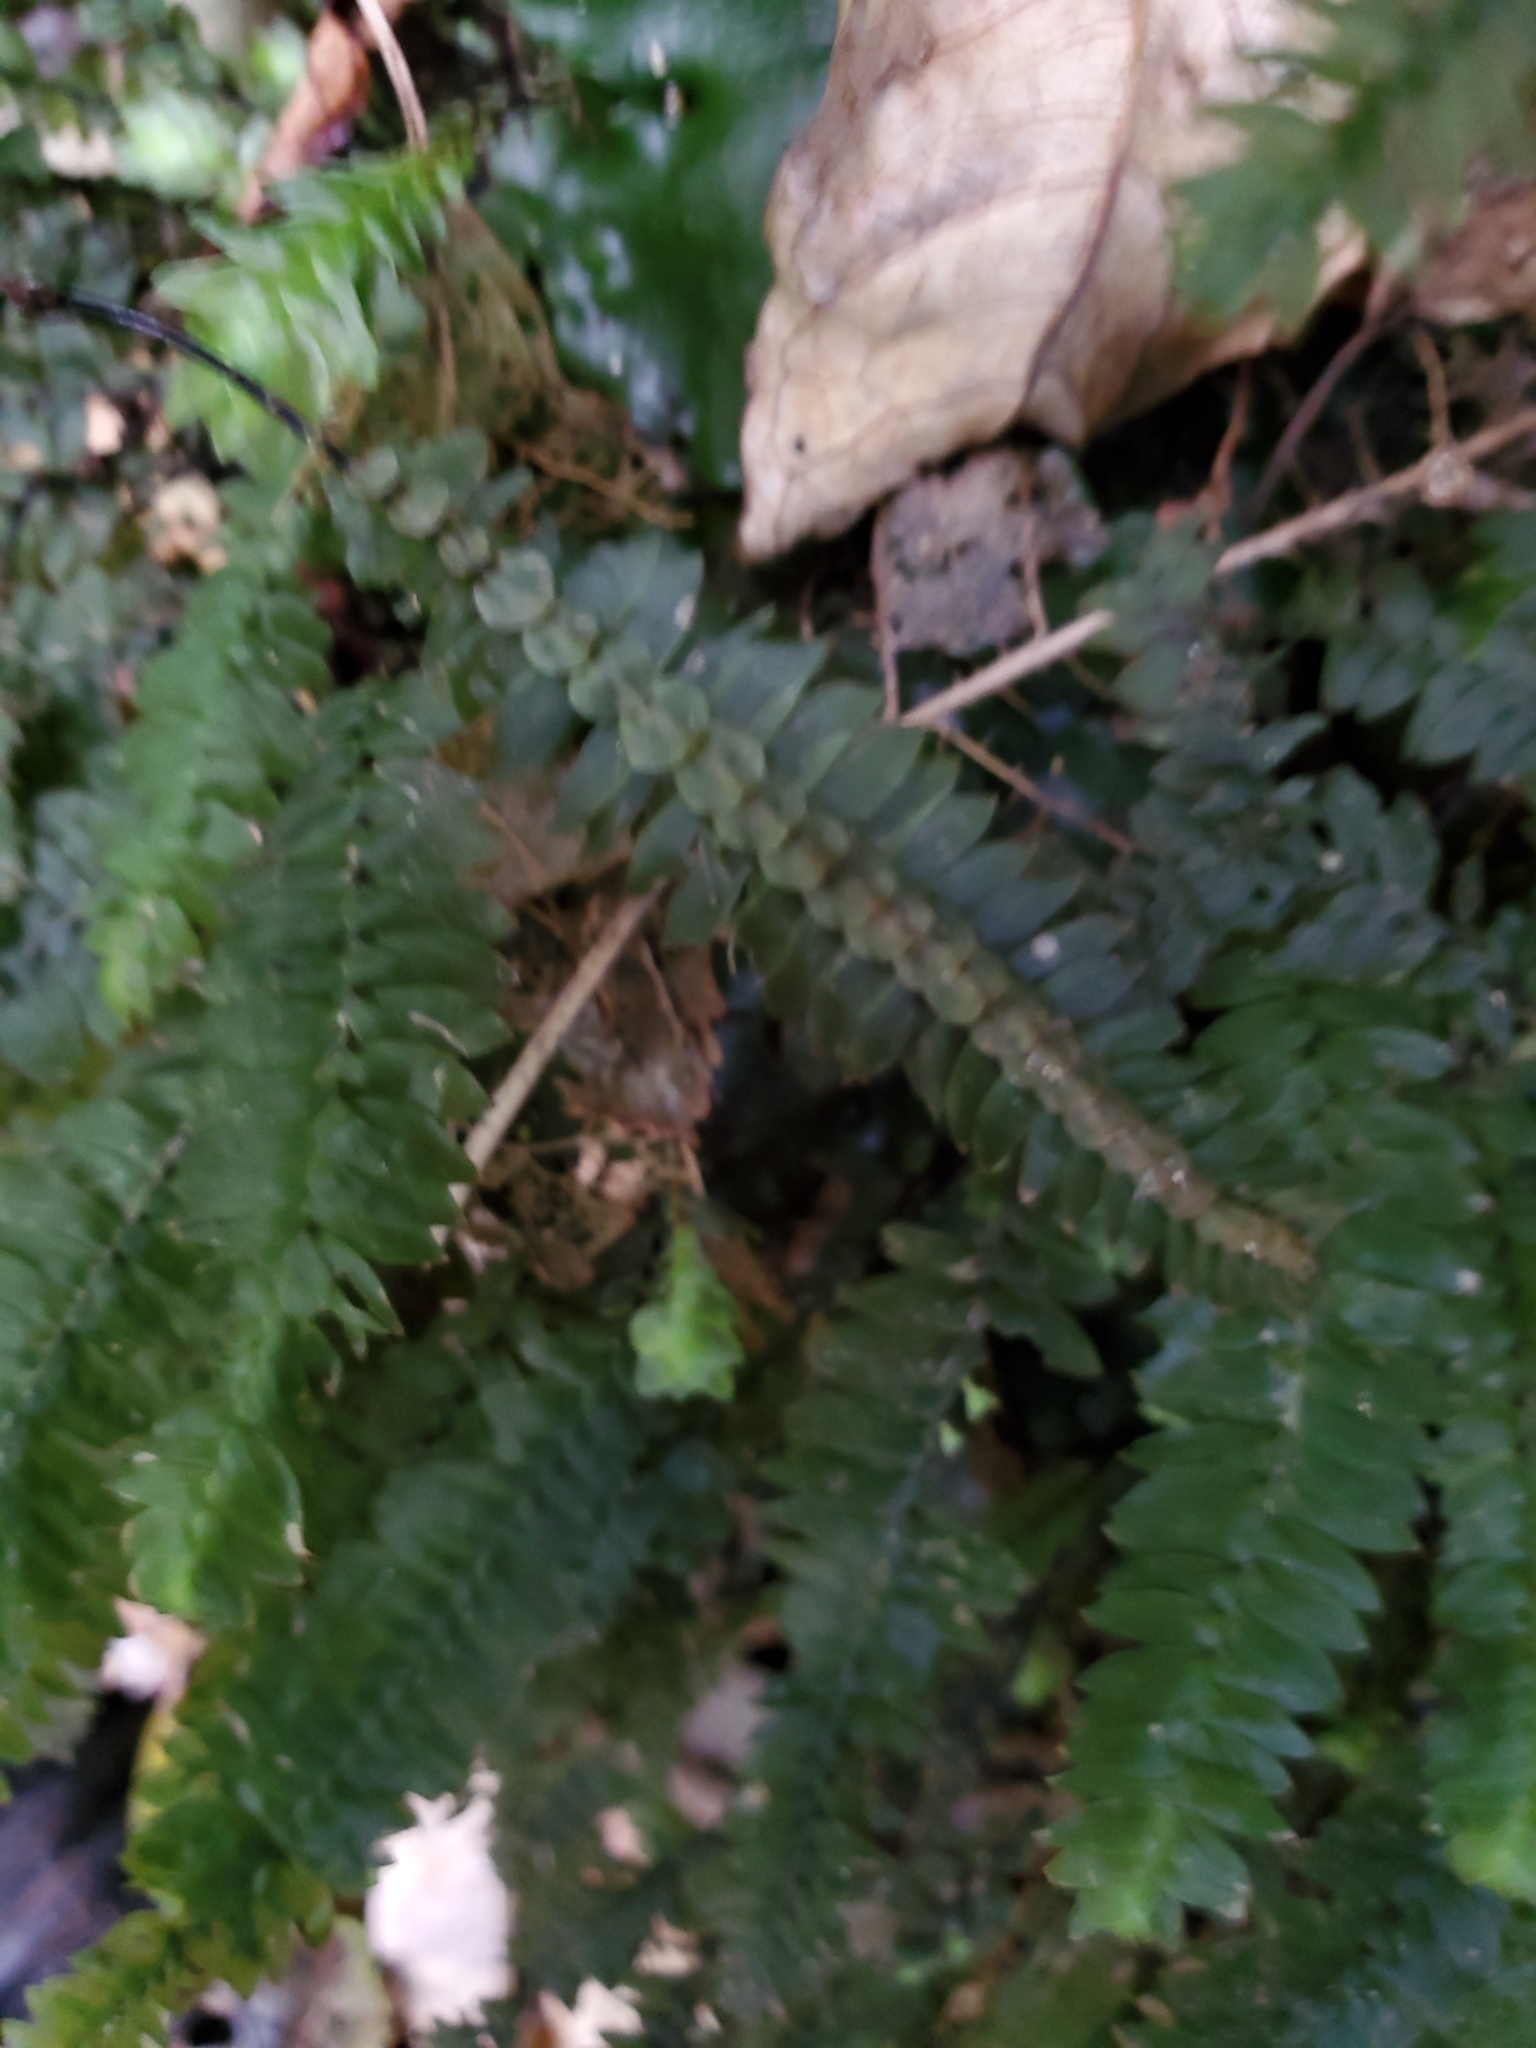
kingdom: Plantae
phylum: Bryophyta
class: Bryopsida
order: Hypopterygiales
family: Hypopterygiaceae
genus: Cyathophorum
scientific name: Cyathophorum bulbosum
